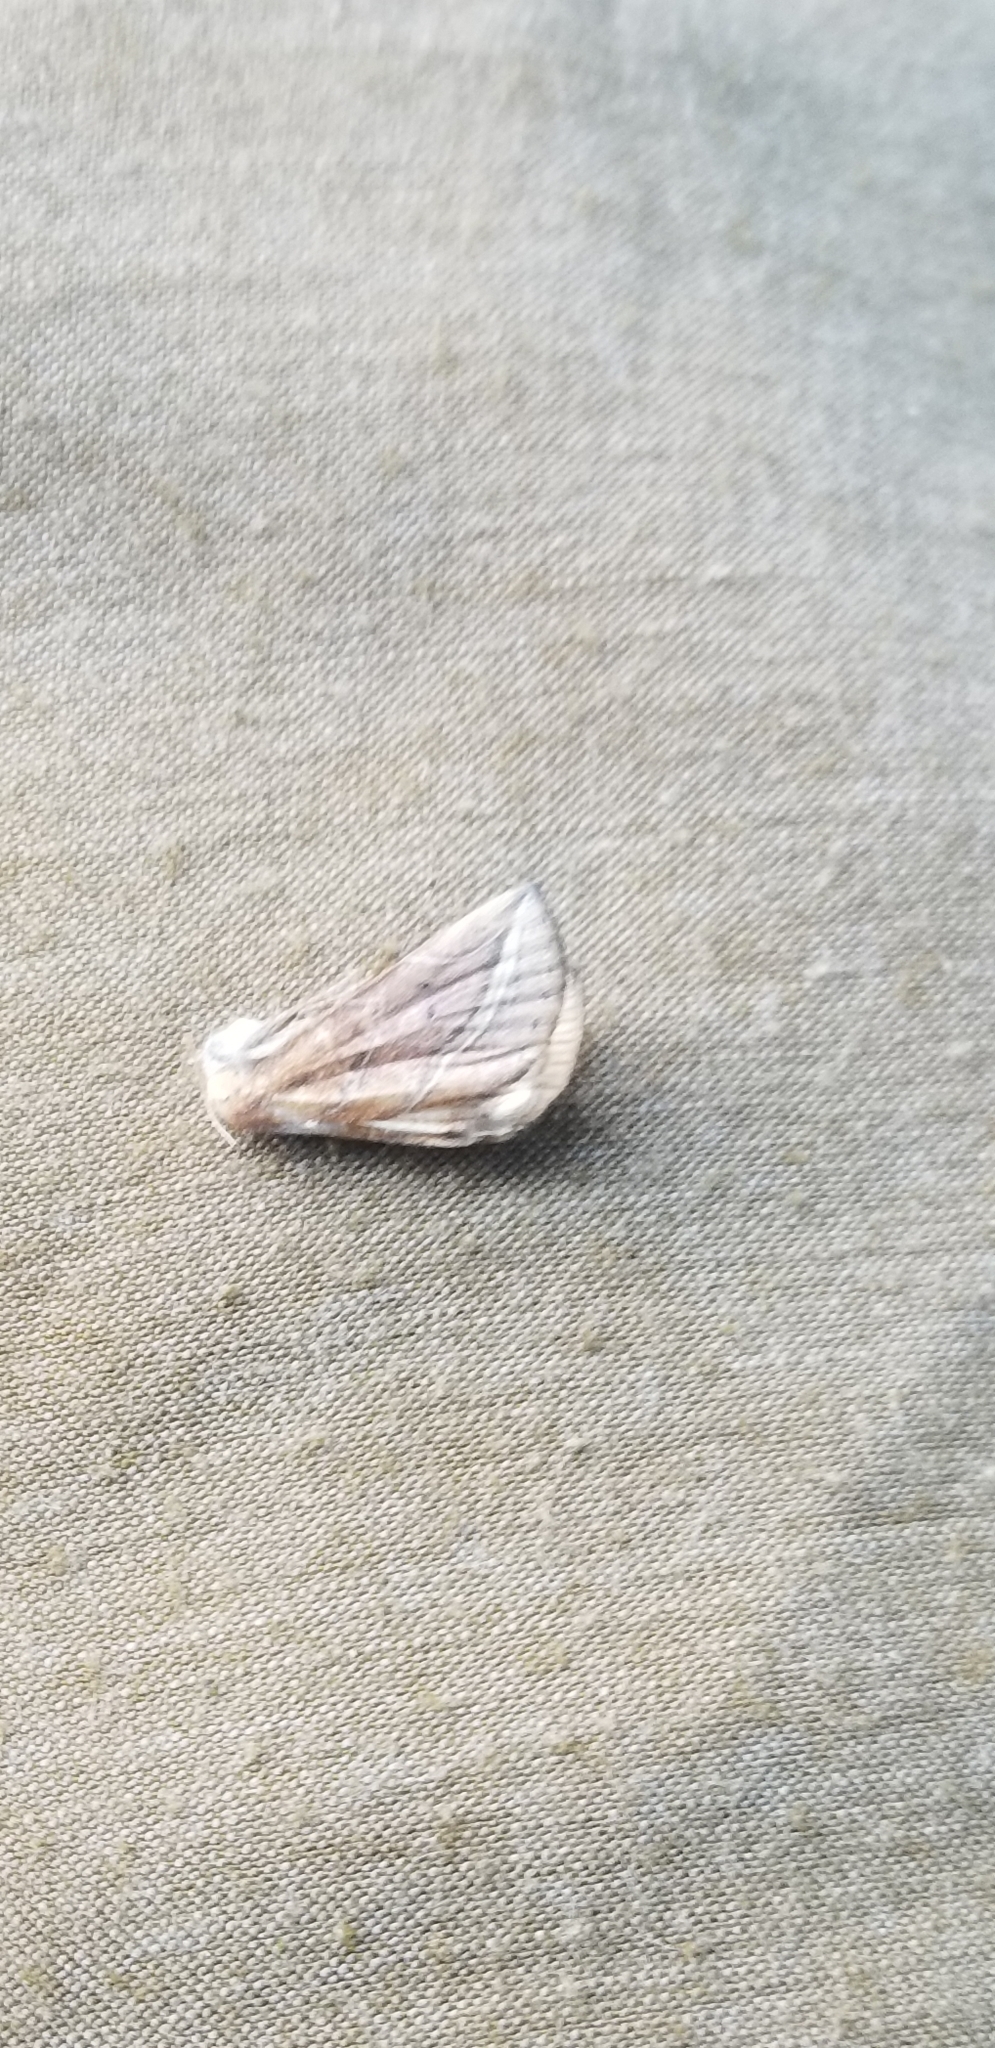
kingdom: Animalia
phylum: Arthropoda
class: Insecta
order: Lepidoptera
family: Erebidae
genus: Phyprosopus
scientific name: Phyprosopus callitrichoides
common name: Curved-lined owlet
